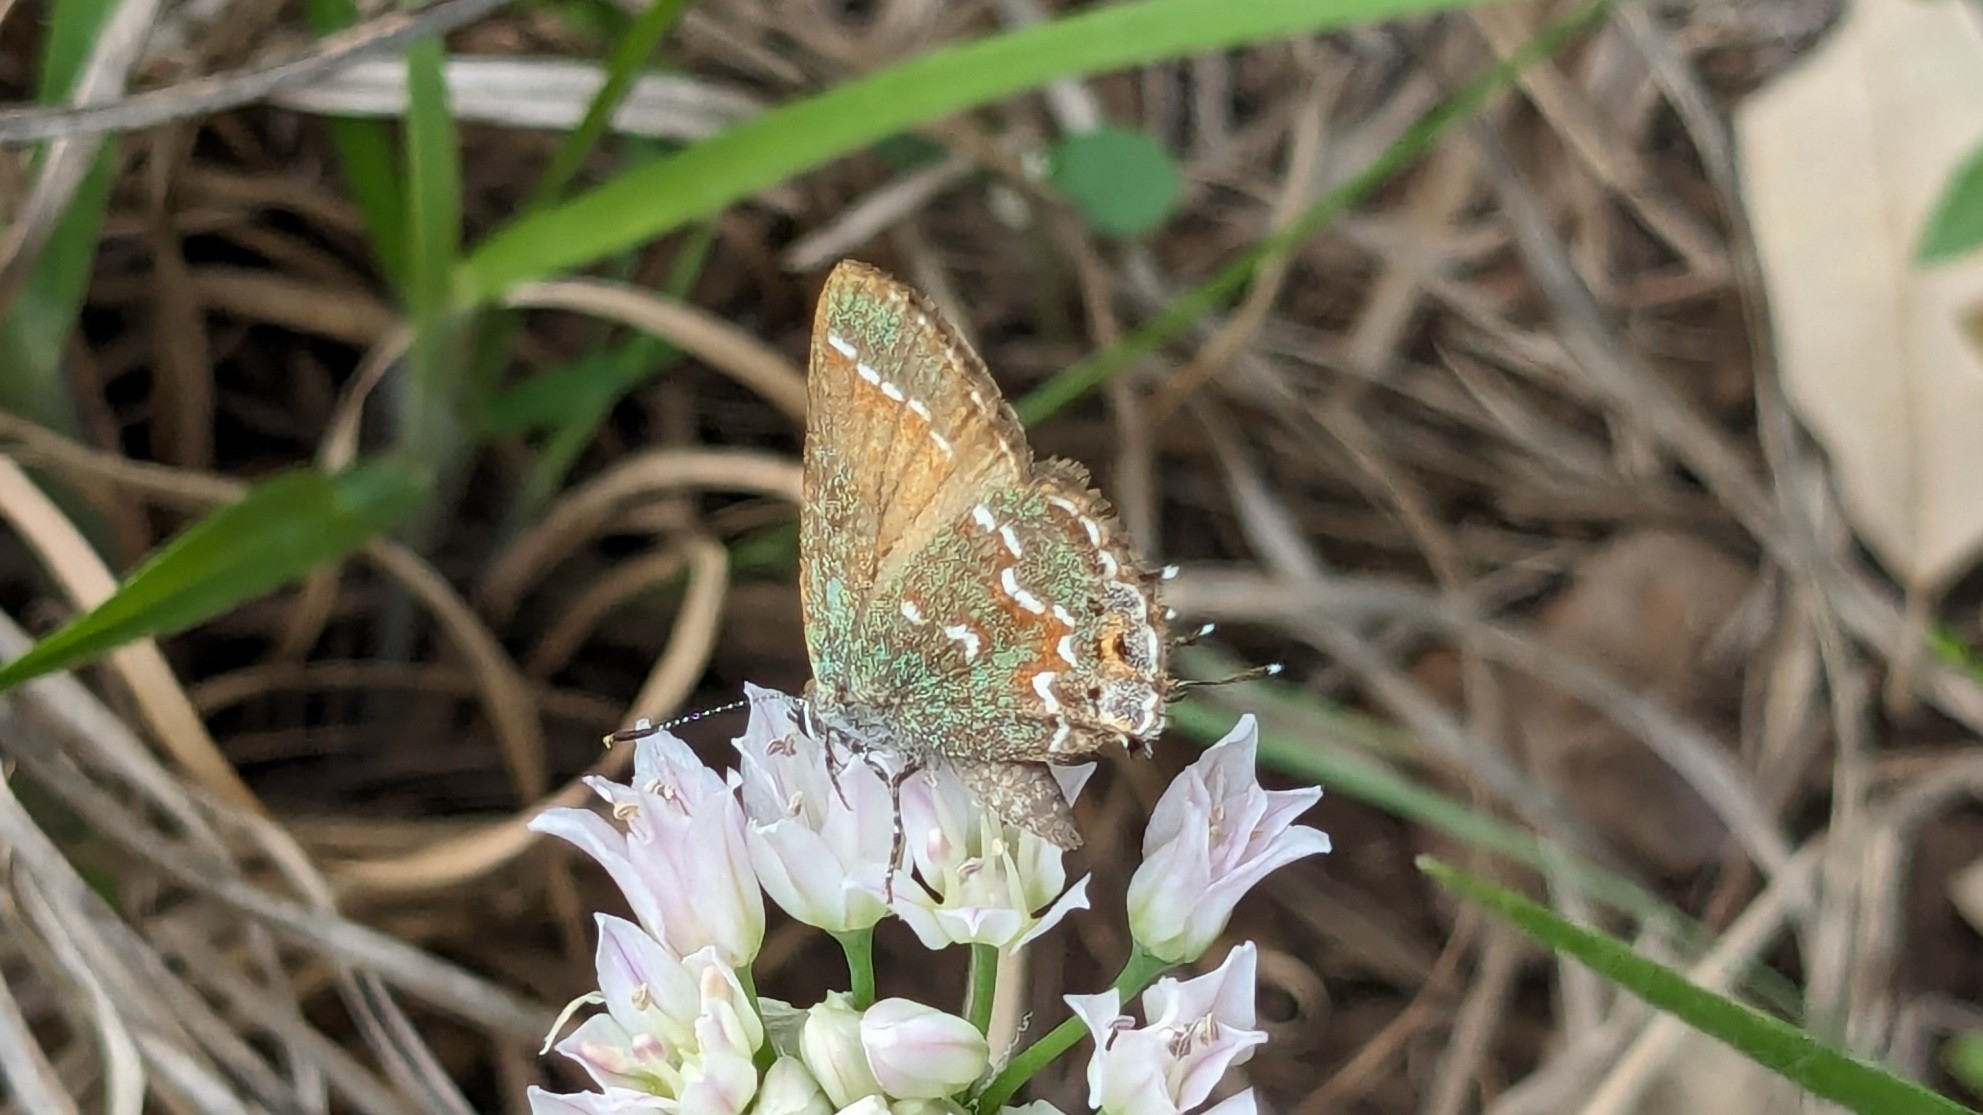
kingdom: Animalia
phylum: Arthropoda
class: Insecta
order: Lepidoptera
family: Lycaenidae
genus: Mitoura
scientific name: Mitoura gryneus
